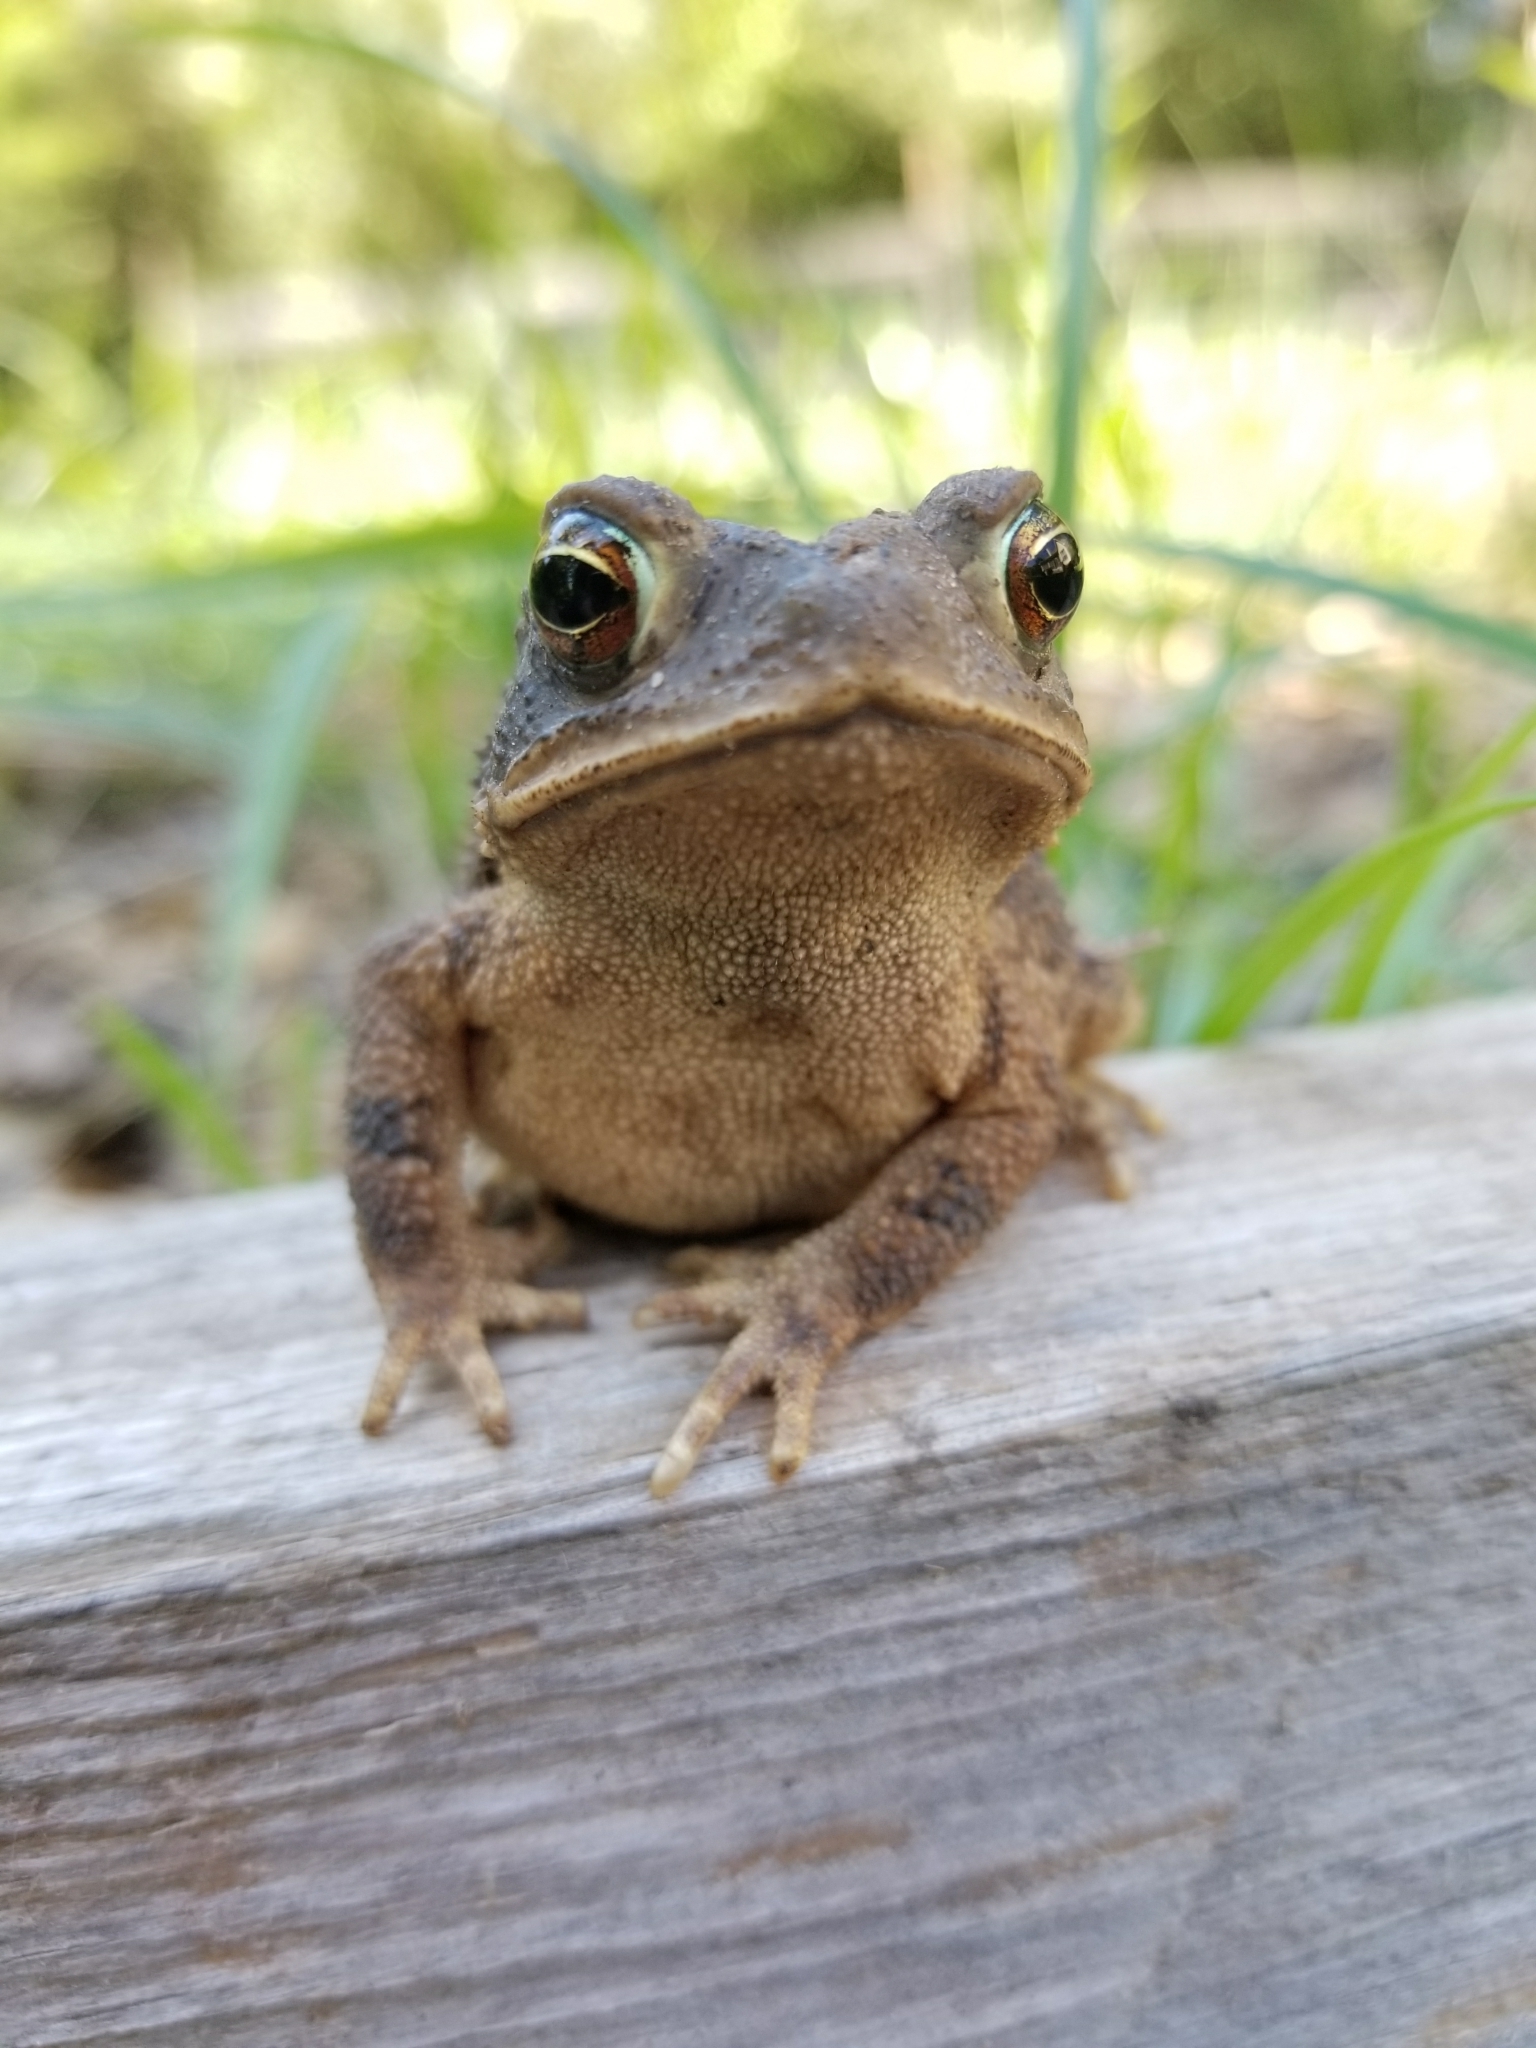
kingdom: Animalia
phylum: Chordata
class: Amphibia
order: Anura
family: Bufonidae
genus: Incilius
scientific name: Incilius nebulifer
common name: Gulf coast toad
